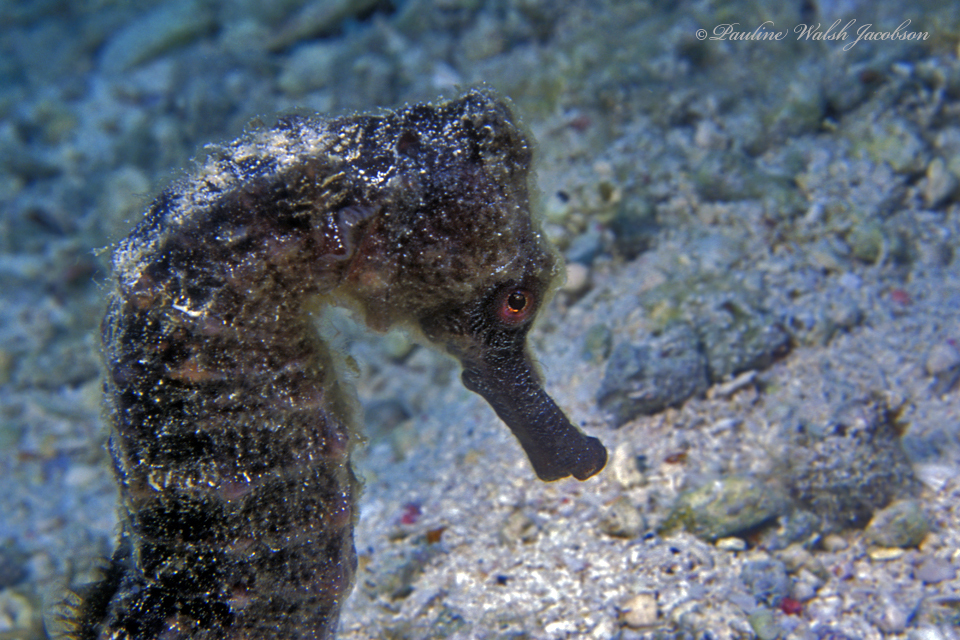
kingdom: Animalia
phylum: Chordata
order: Syngnathiformes
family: Syngnathidae
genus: Hippocampus
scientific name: Hippocampus reidi
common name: Slender seahorse
